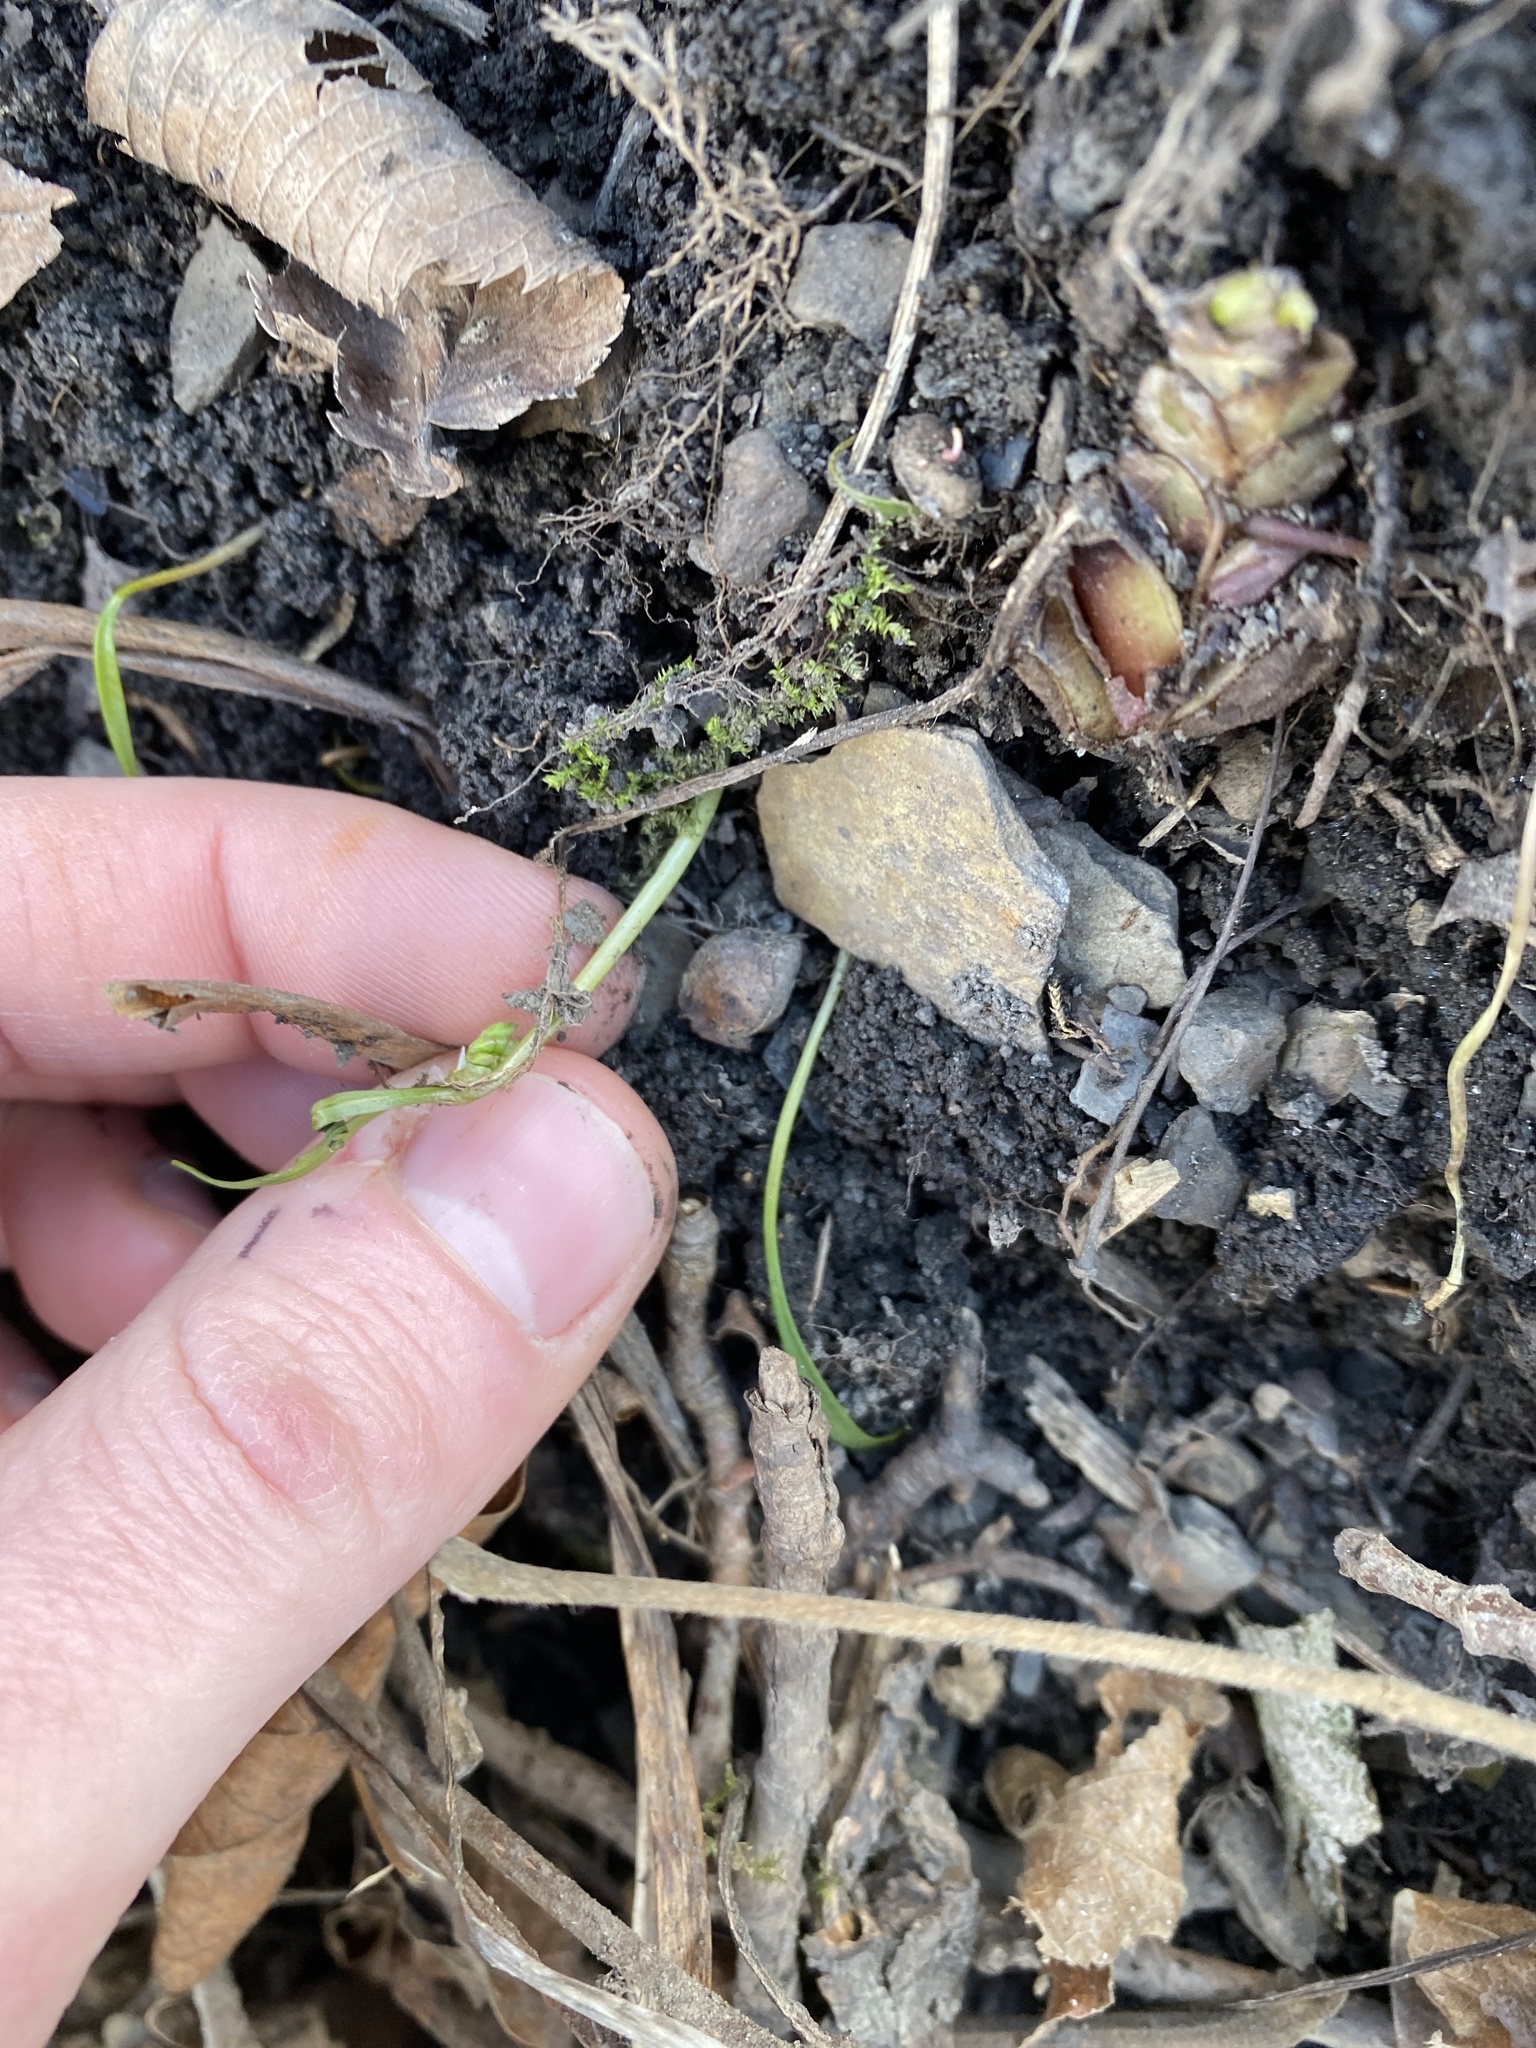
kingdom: Plantae
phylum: Tracheophyta
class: Magnoliopsida
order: Caryophyllales
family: Montiaceae
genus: Claytonia
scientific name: Claytonia virginica
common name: Virginia springbeauty
